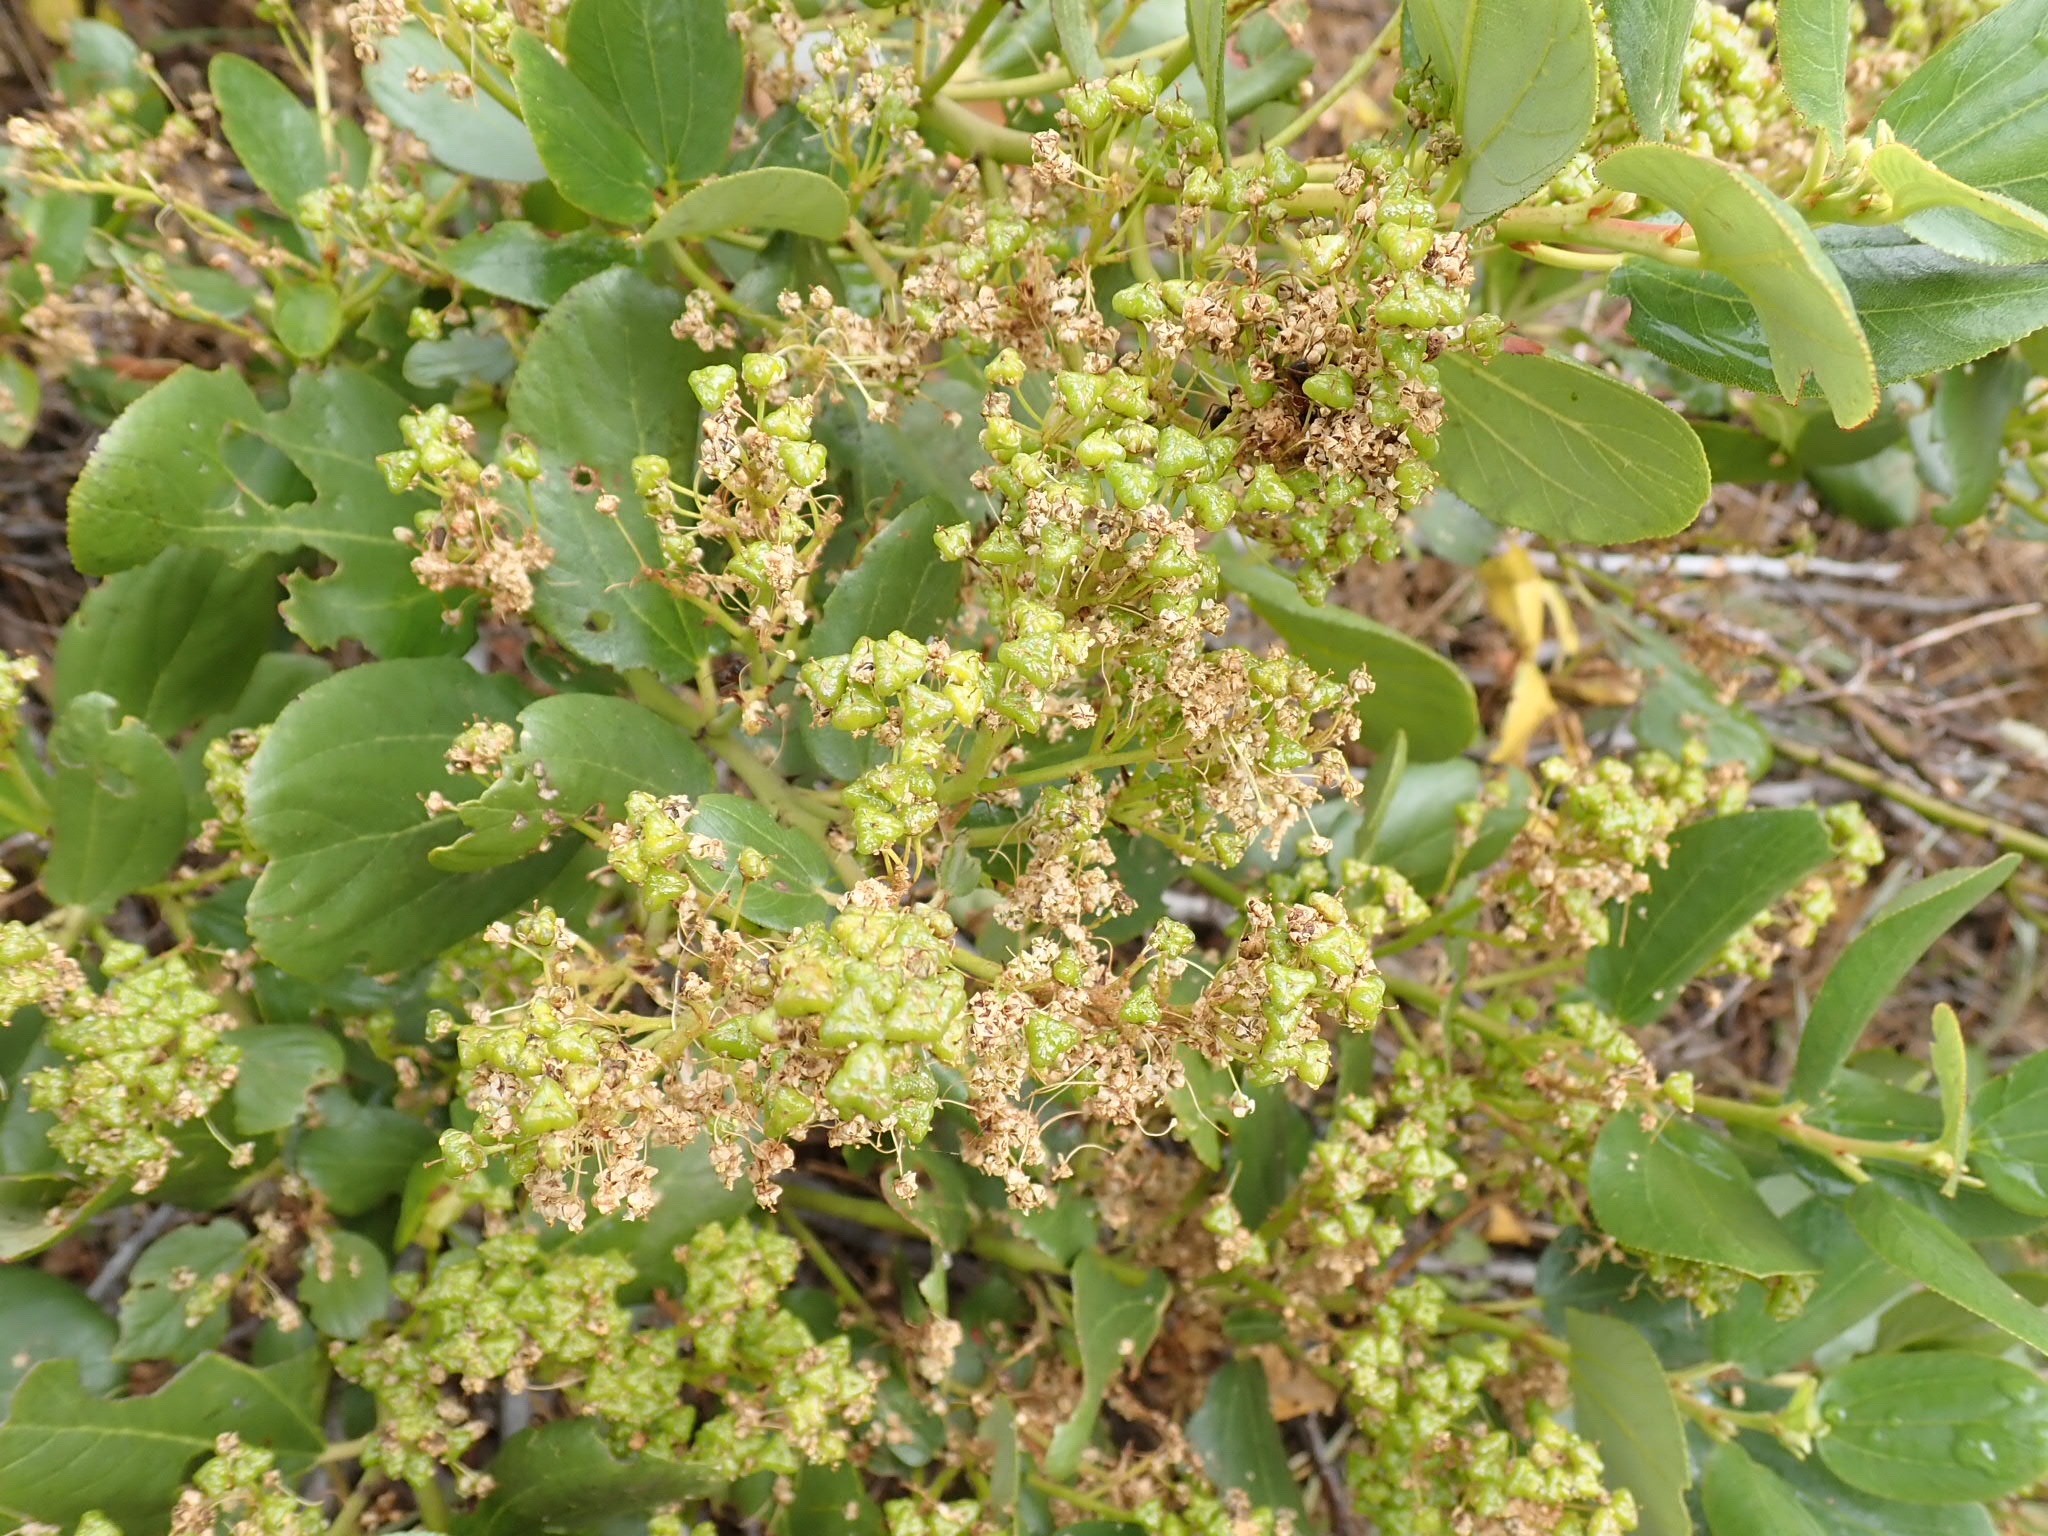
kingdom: Plantae
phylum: Tracheophyta
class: Magnoliopsida
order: Rosales
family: Rhamnaceae
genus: Ceanothus
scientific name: Ceanothus velutinus
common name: Snowbrush
